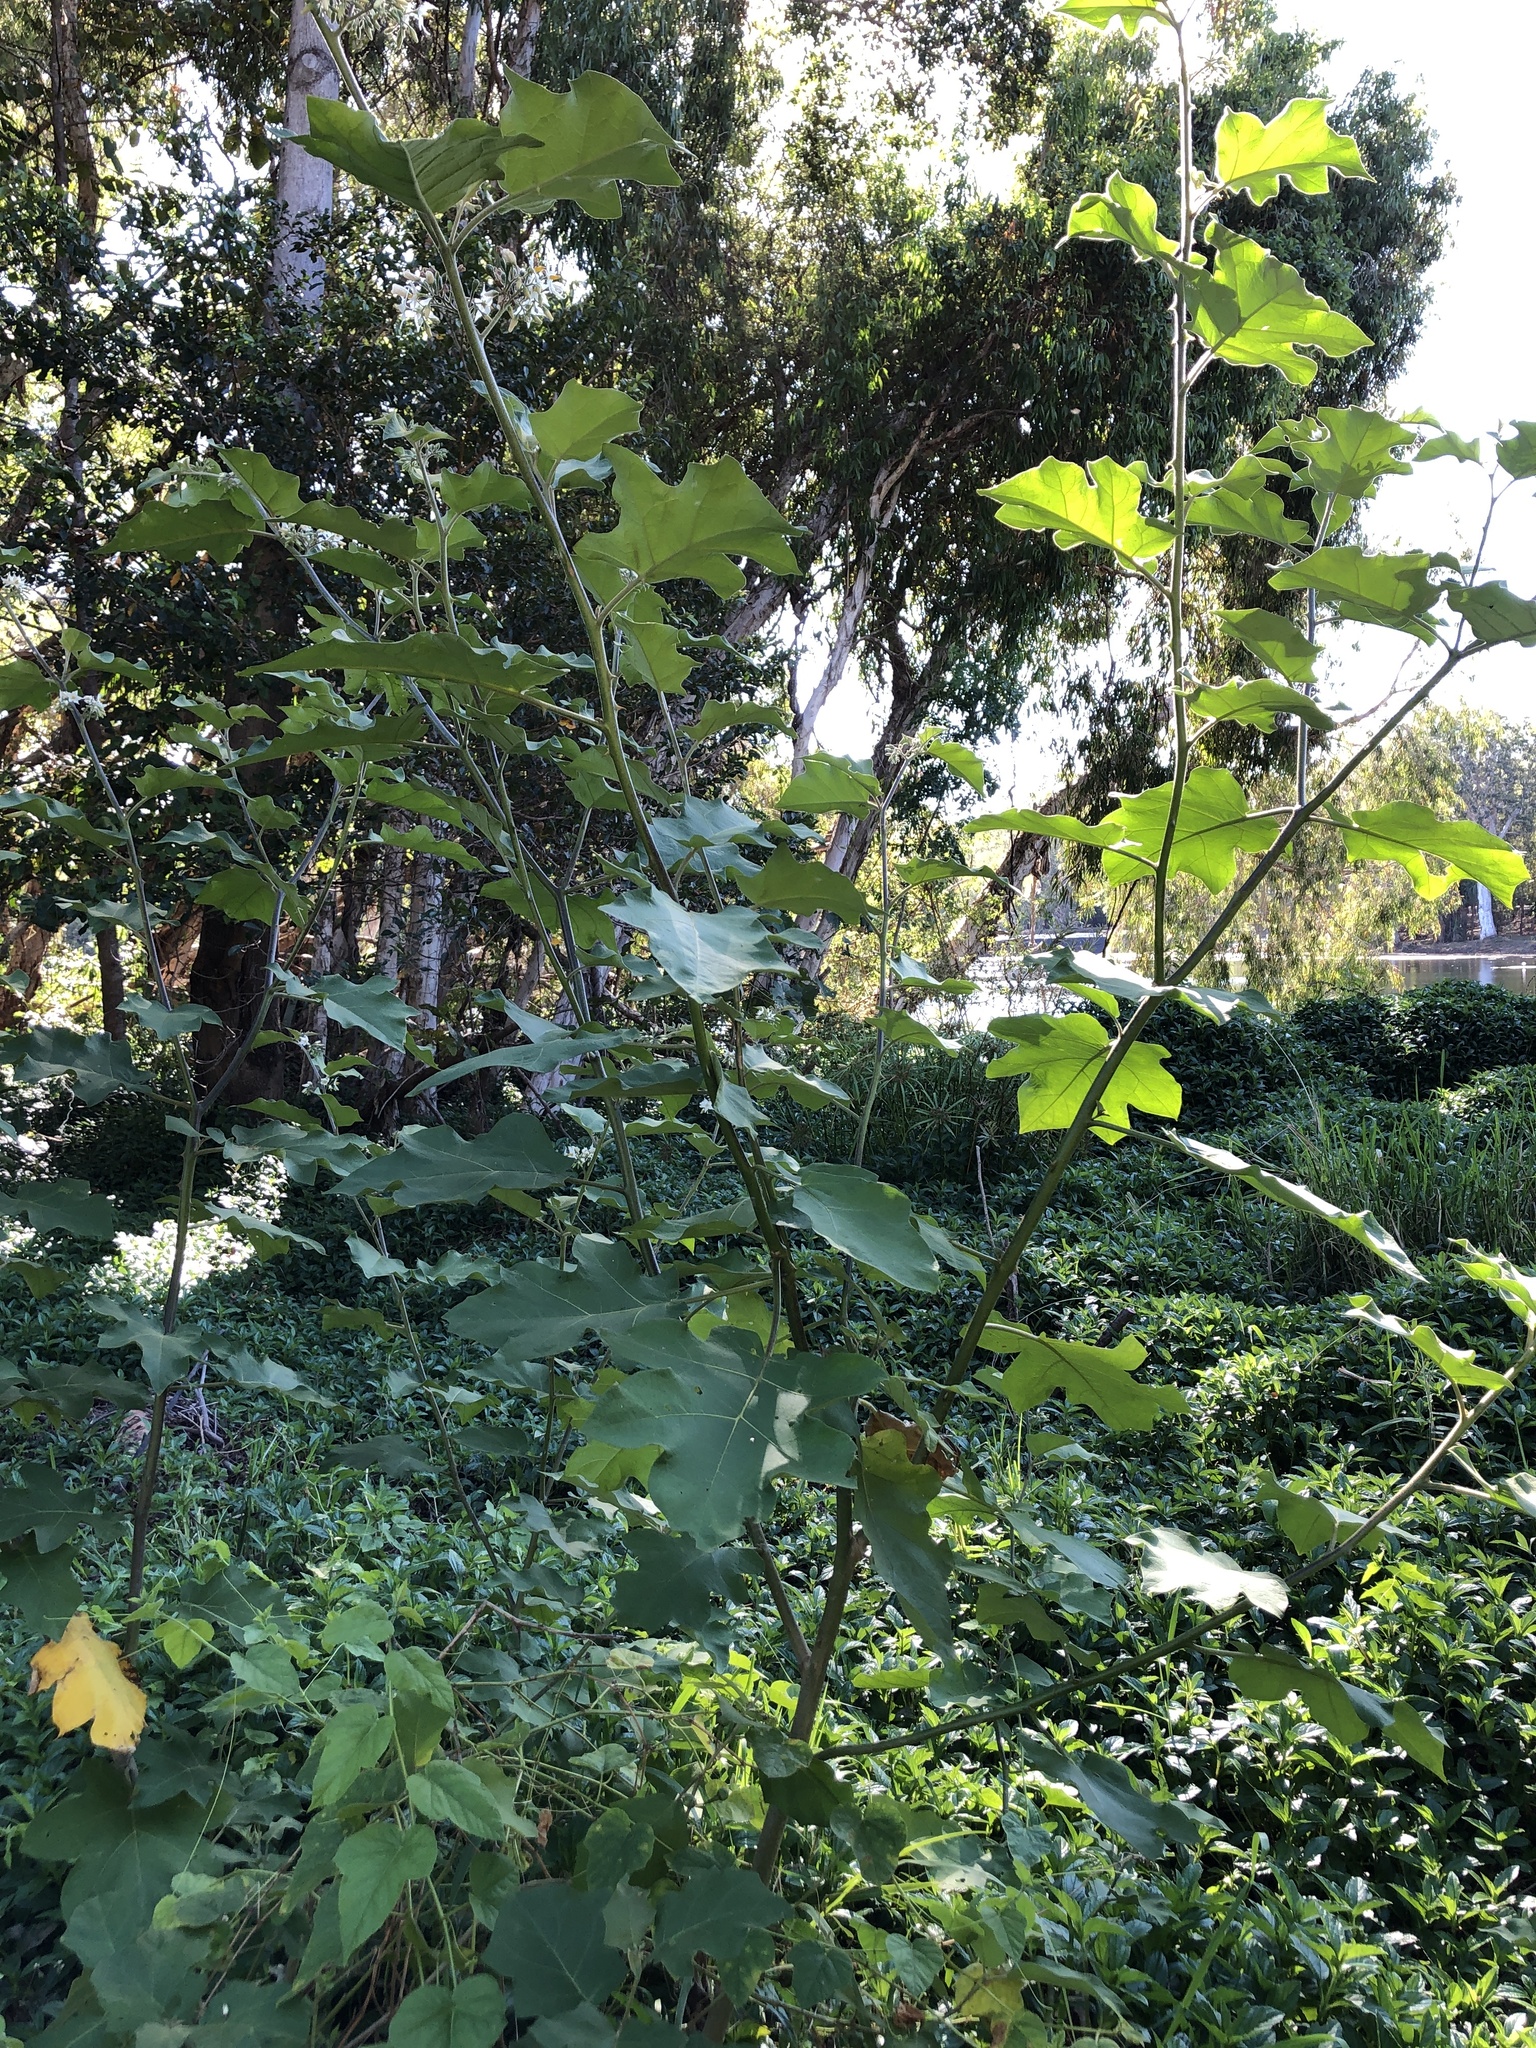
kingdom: Plantae
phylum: Tracheophyta
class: Magnoliopsida
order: Solanales
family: Solanaceae
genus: Solanum
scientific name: Solanum torvum
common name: Turkey berry
